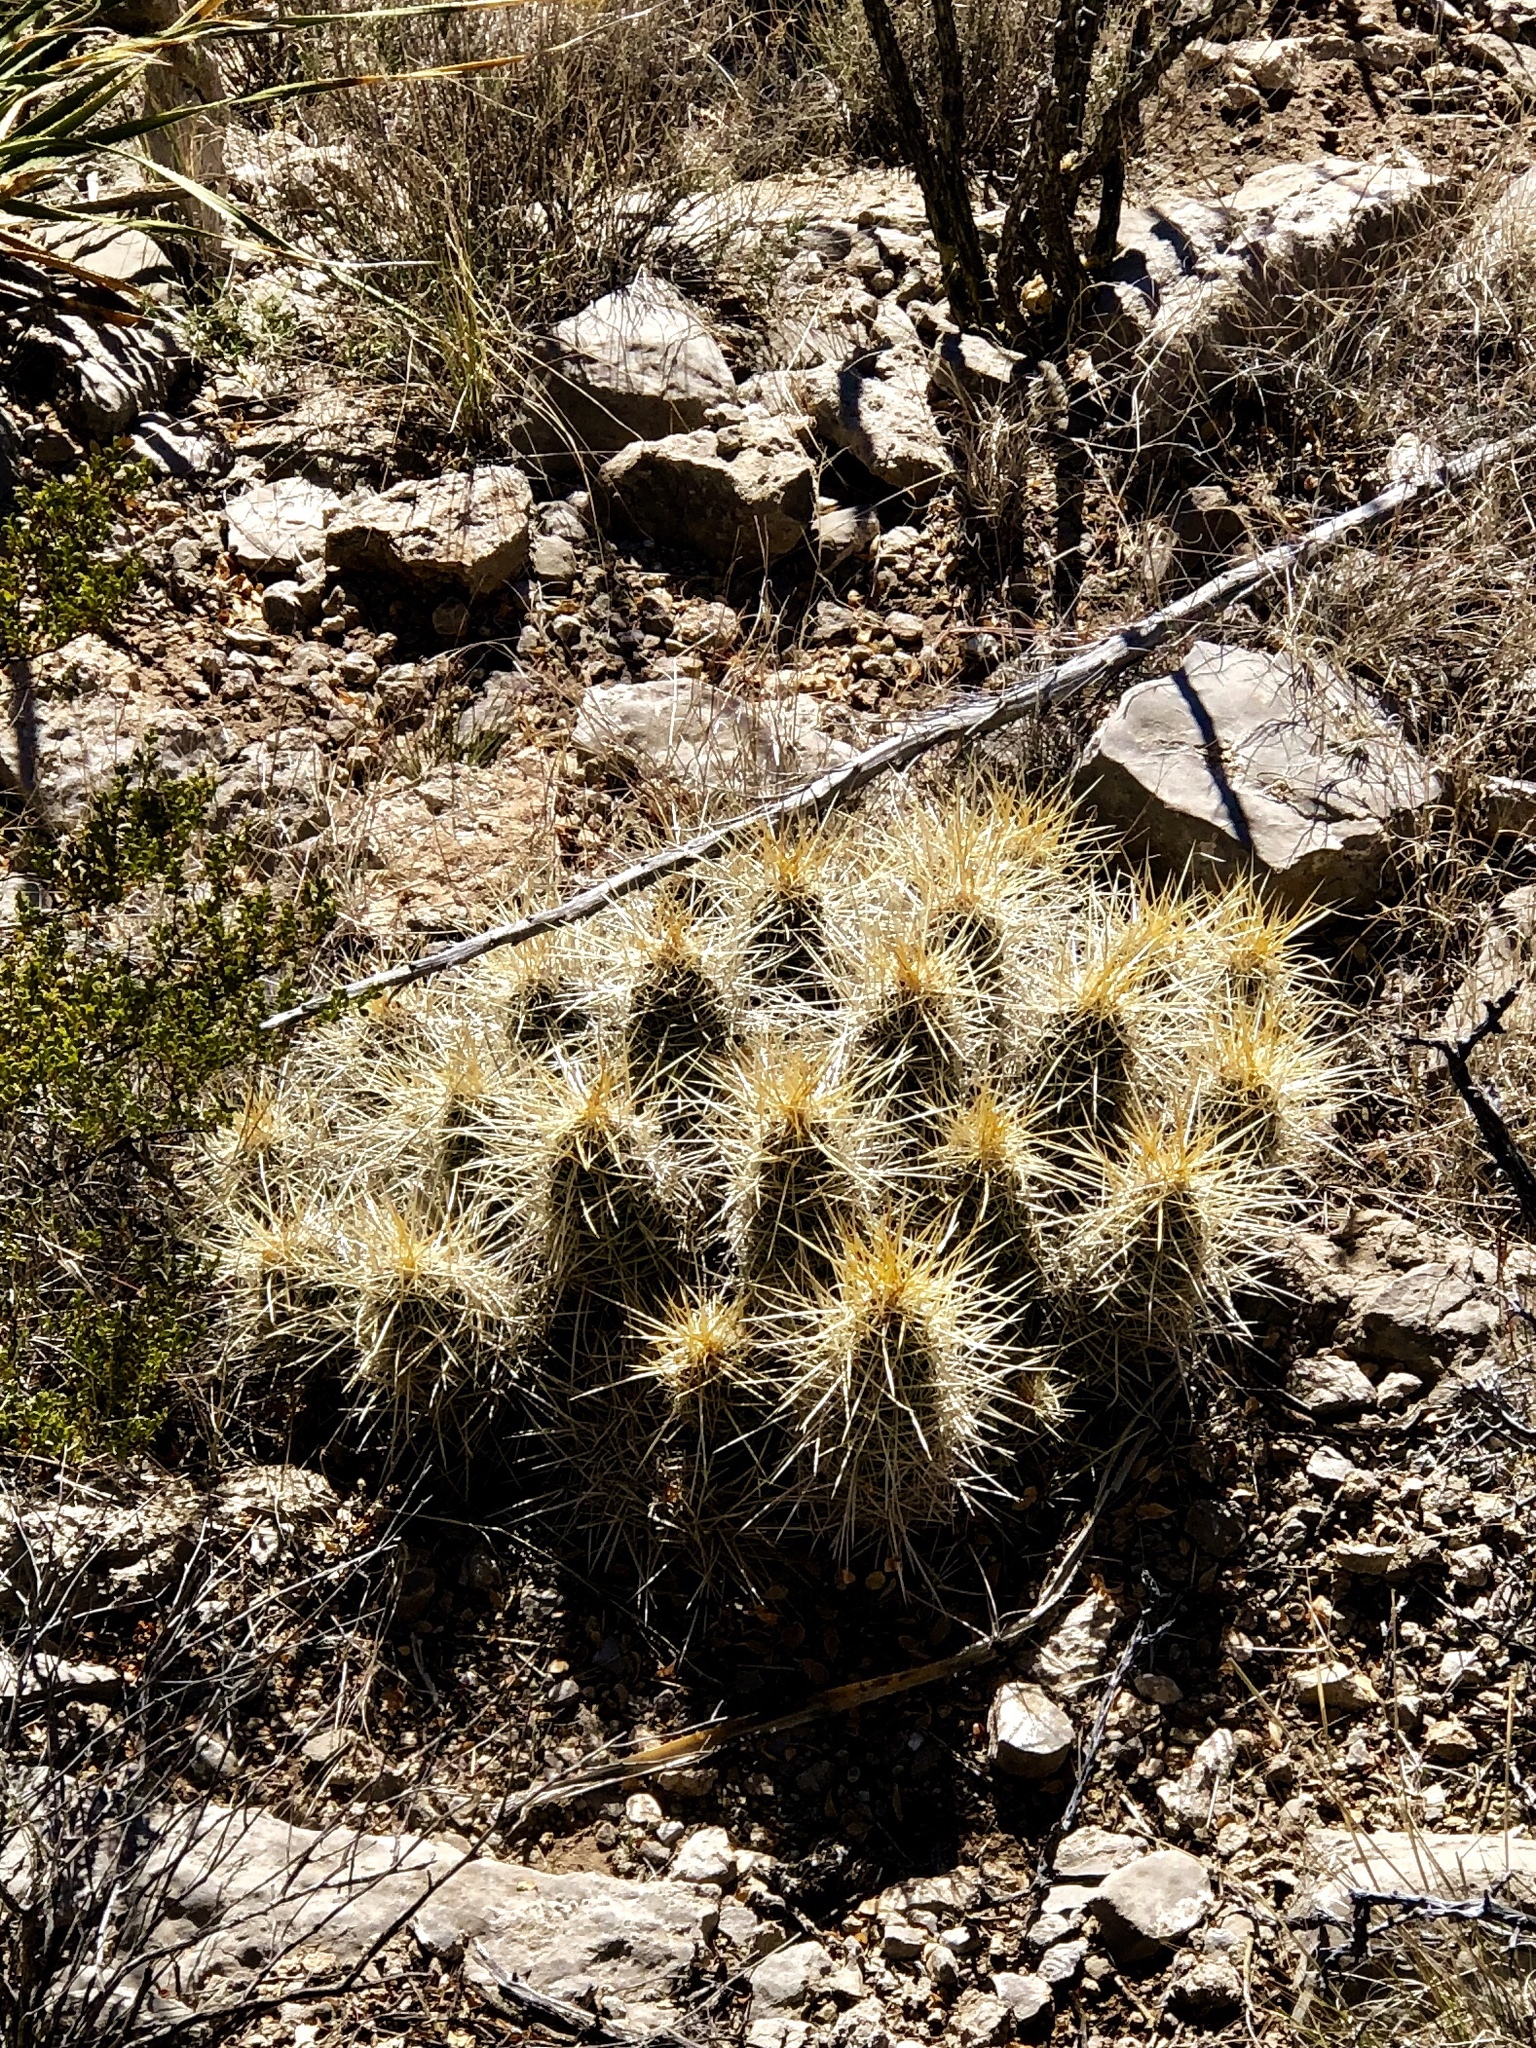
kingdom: Plantae
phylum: Tracheophyta
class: Magnoliopsida
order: Caryophyllales
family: Cactaceae
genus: Echinocereus
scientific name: Echinocereus stramineus
